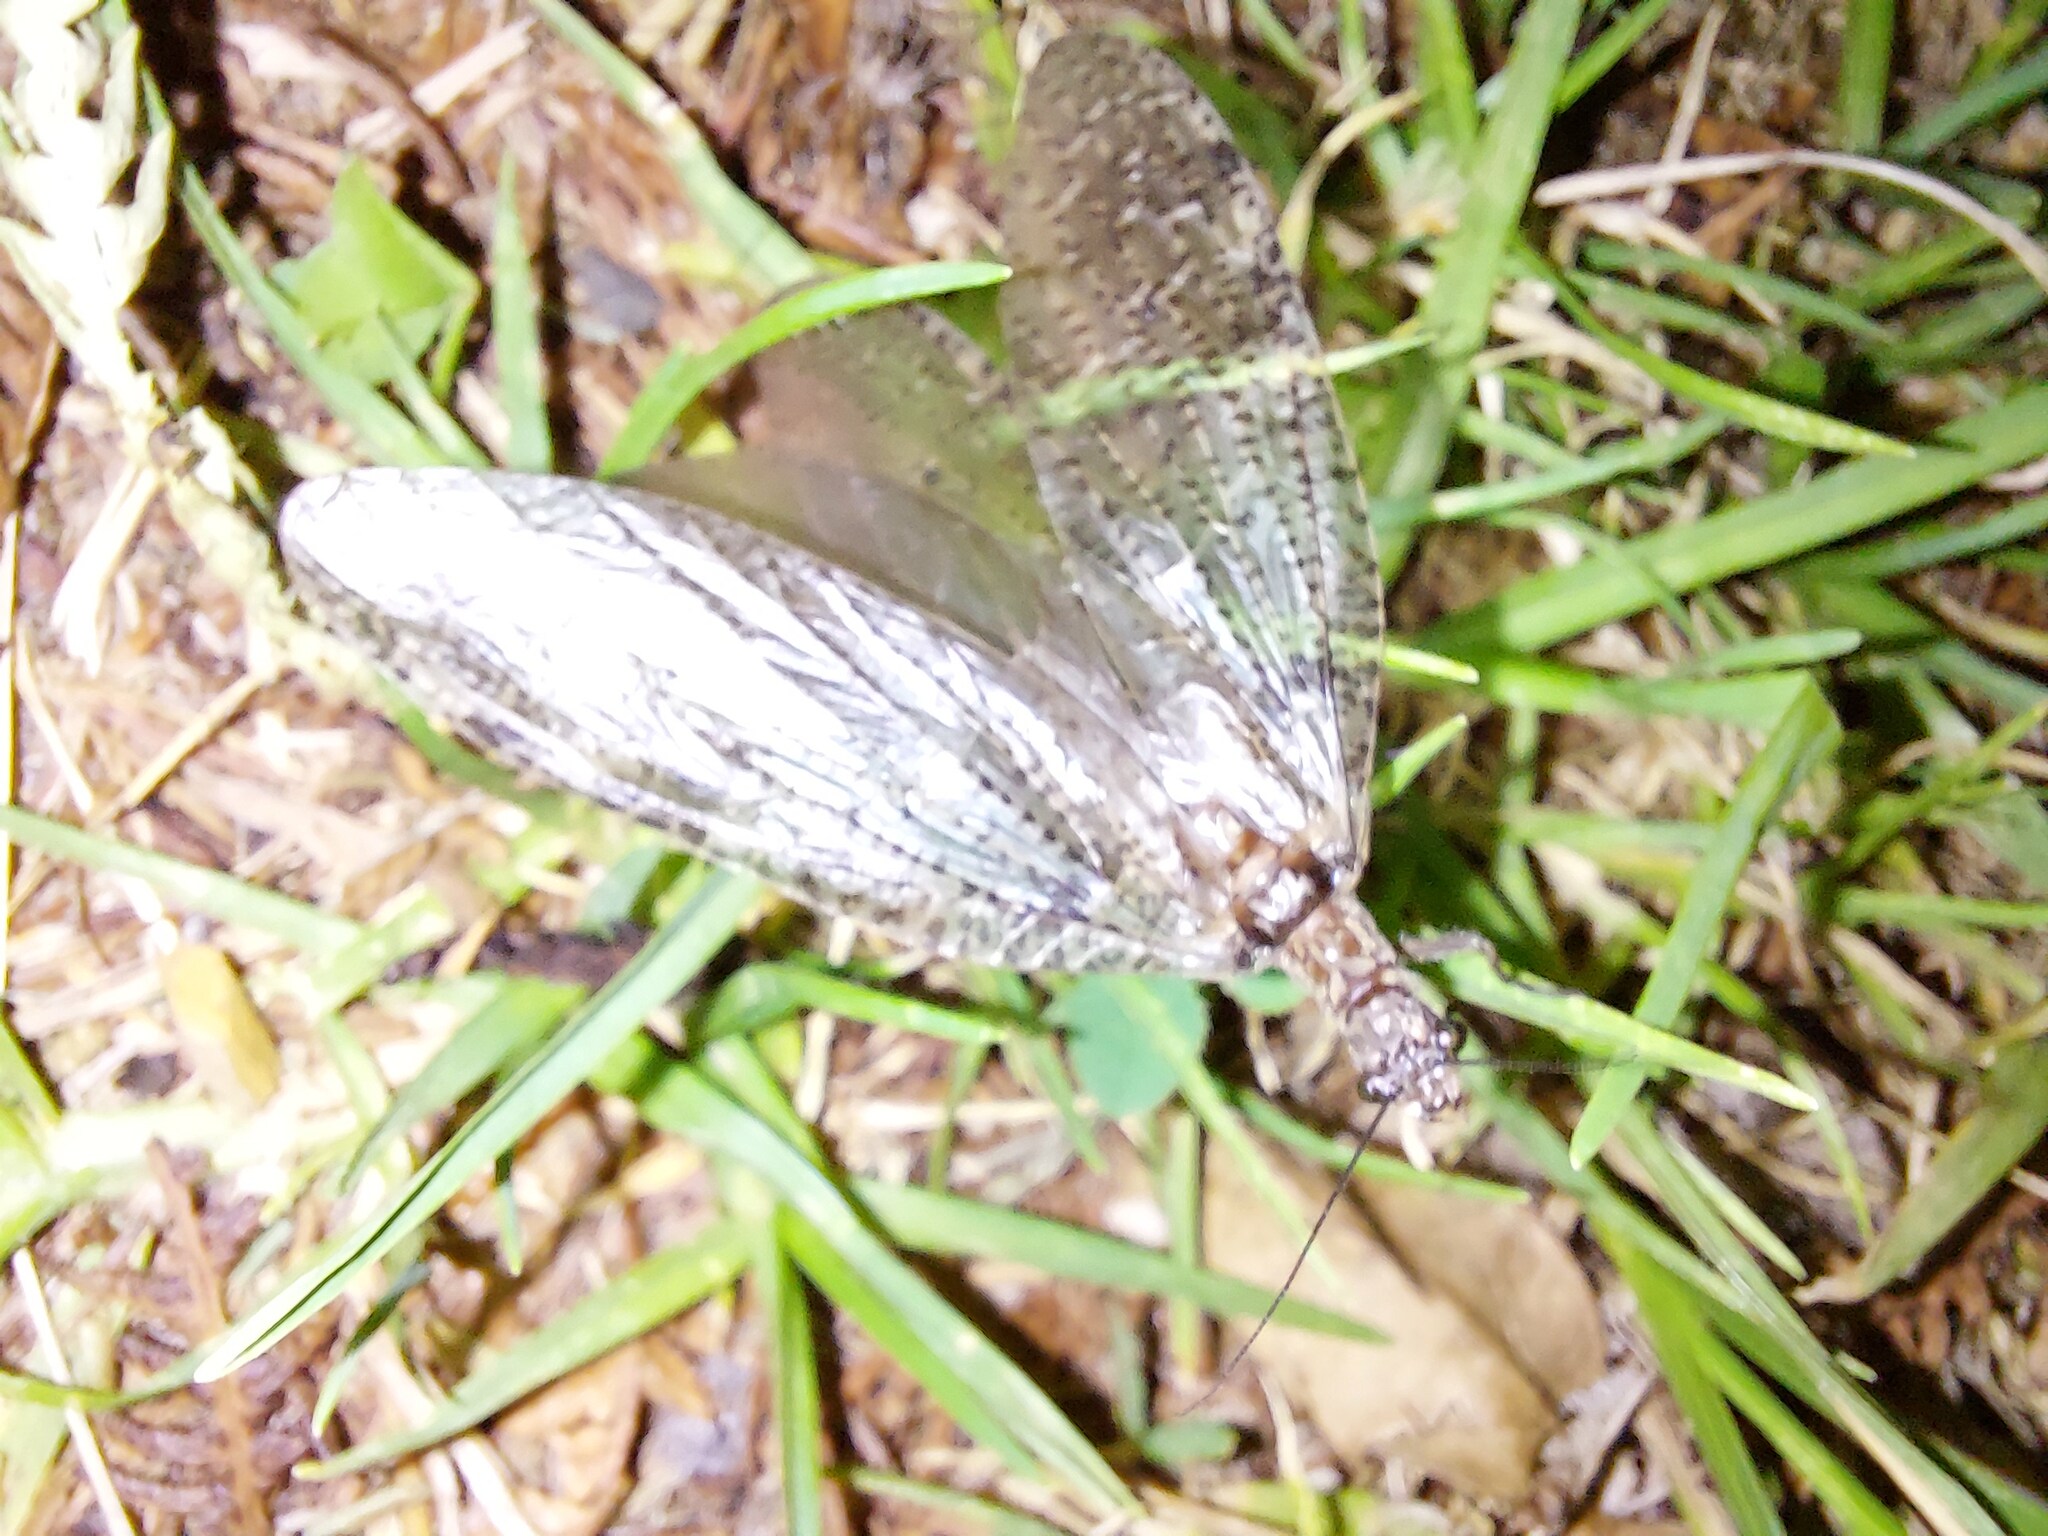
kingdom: Animalia
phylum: Arthropoda
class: Insecta
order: Megaloptera
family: Corydalidae
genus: Archichauliodes
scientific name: Archichauliodes diversus
